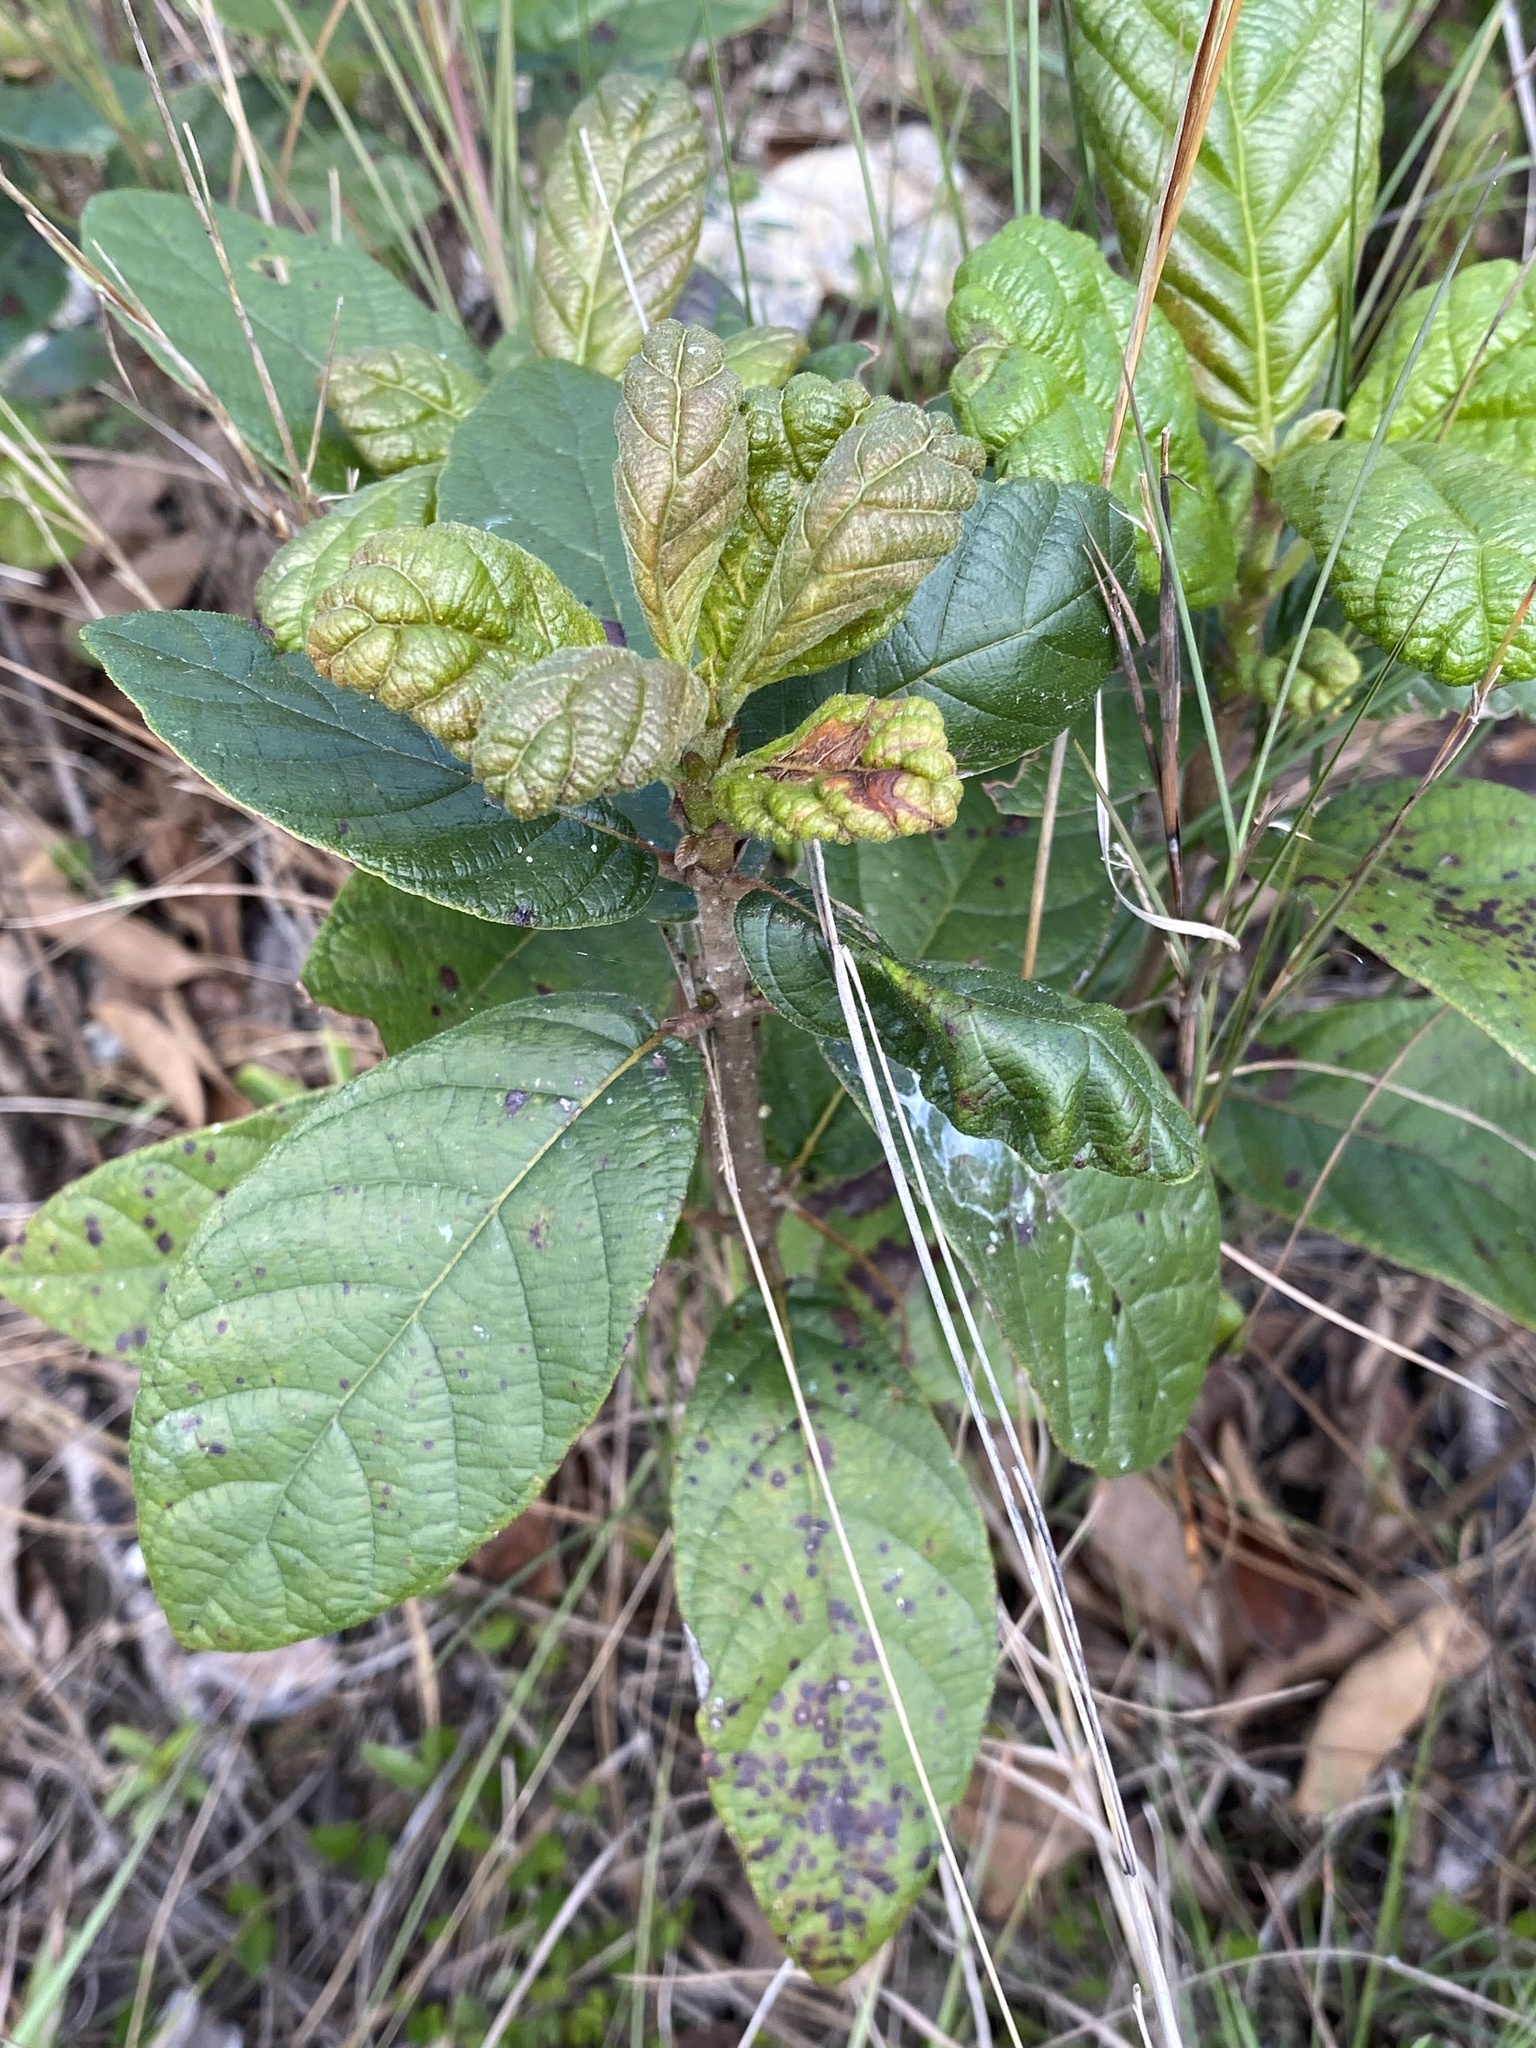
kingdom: Plantae
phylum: Tracheophyta
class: Magnoliopsida
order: Gentianales
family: Rubiaceae
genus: Guettarda
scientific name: Guettarda scabra
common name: Pigeon bay
